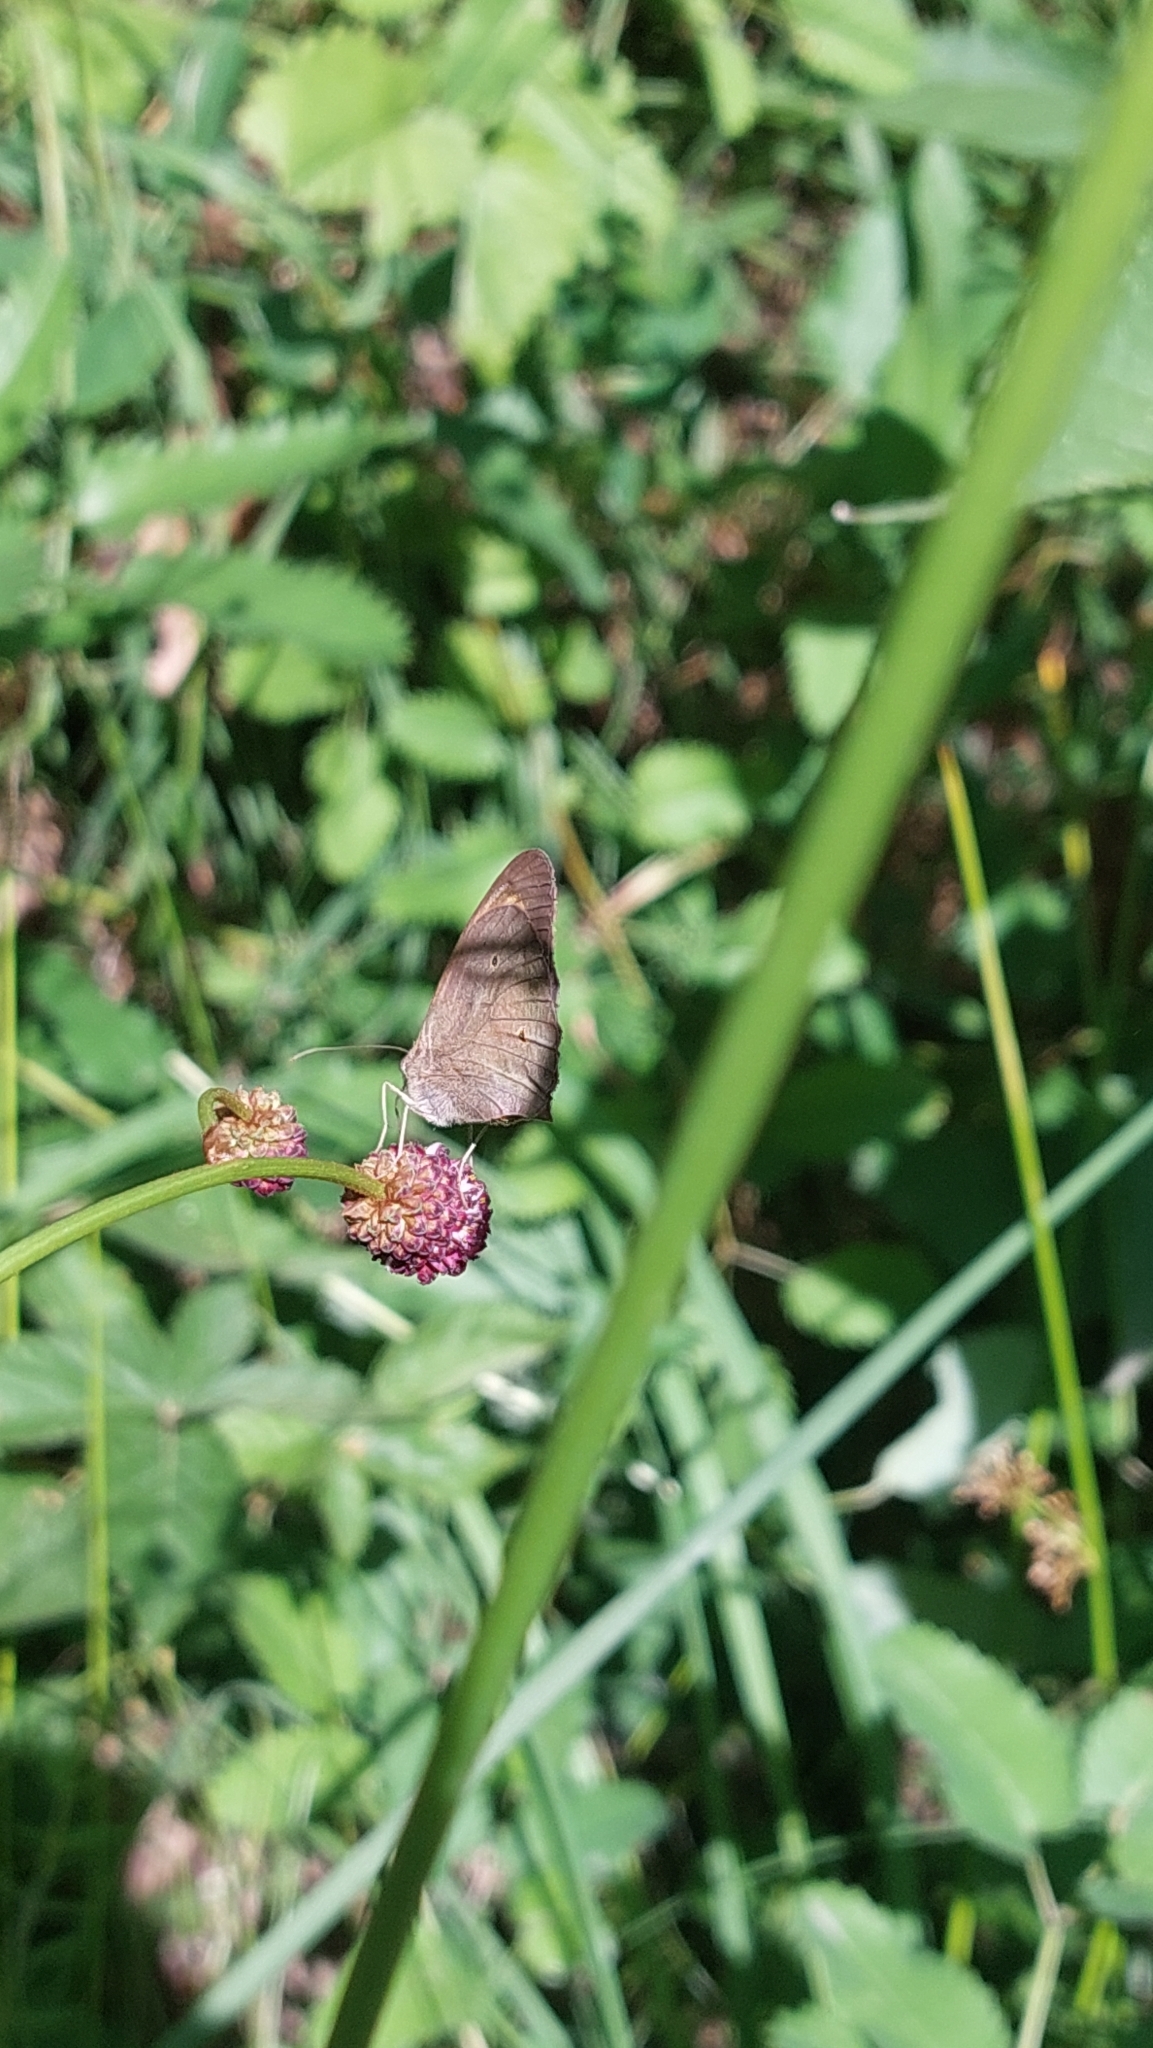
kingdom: Animalia
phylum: Arthropoda
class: Insecta
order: Lepidoptera
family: Nymphalidae
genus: Maniola
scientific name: Maniola jurtina
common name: Meadow brown
